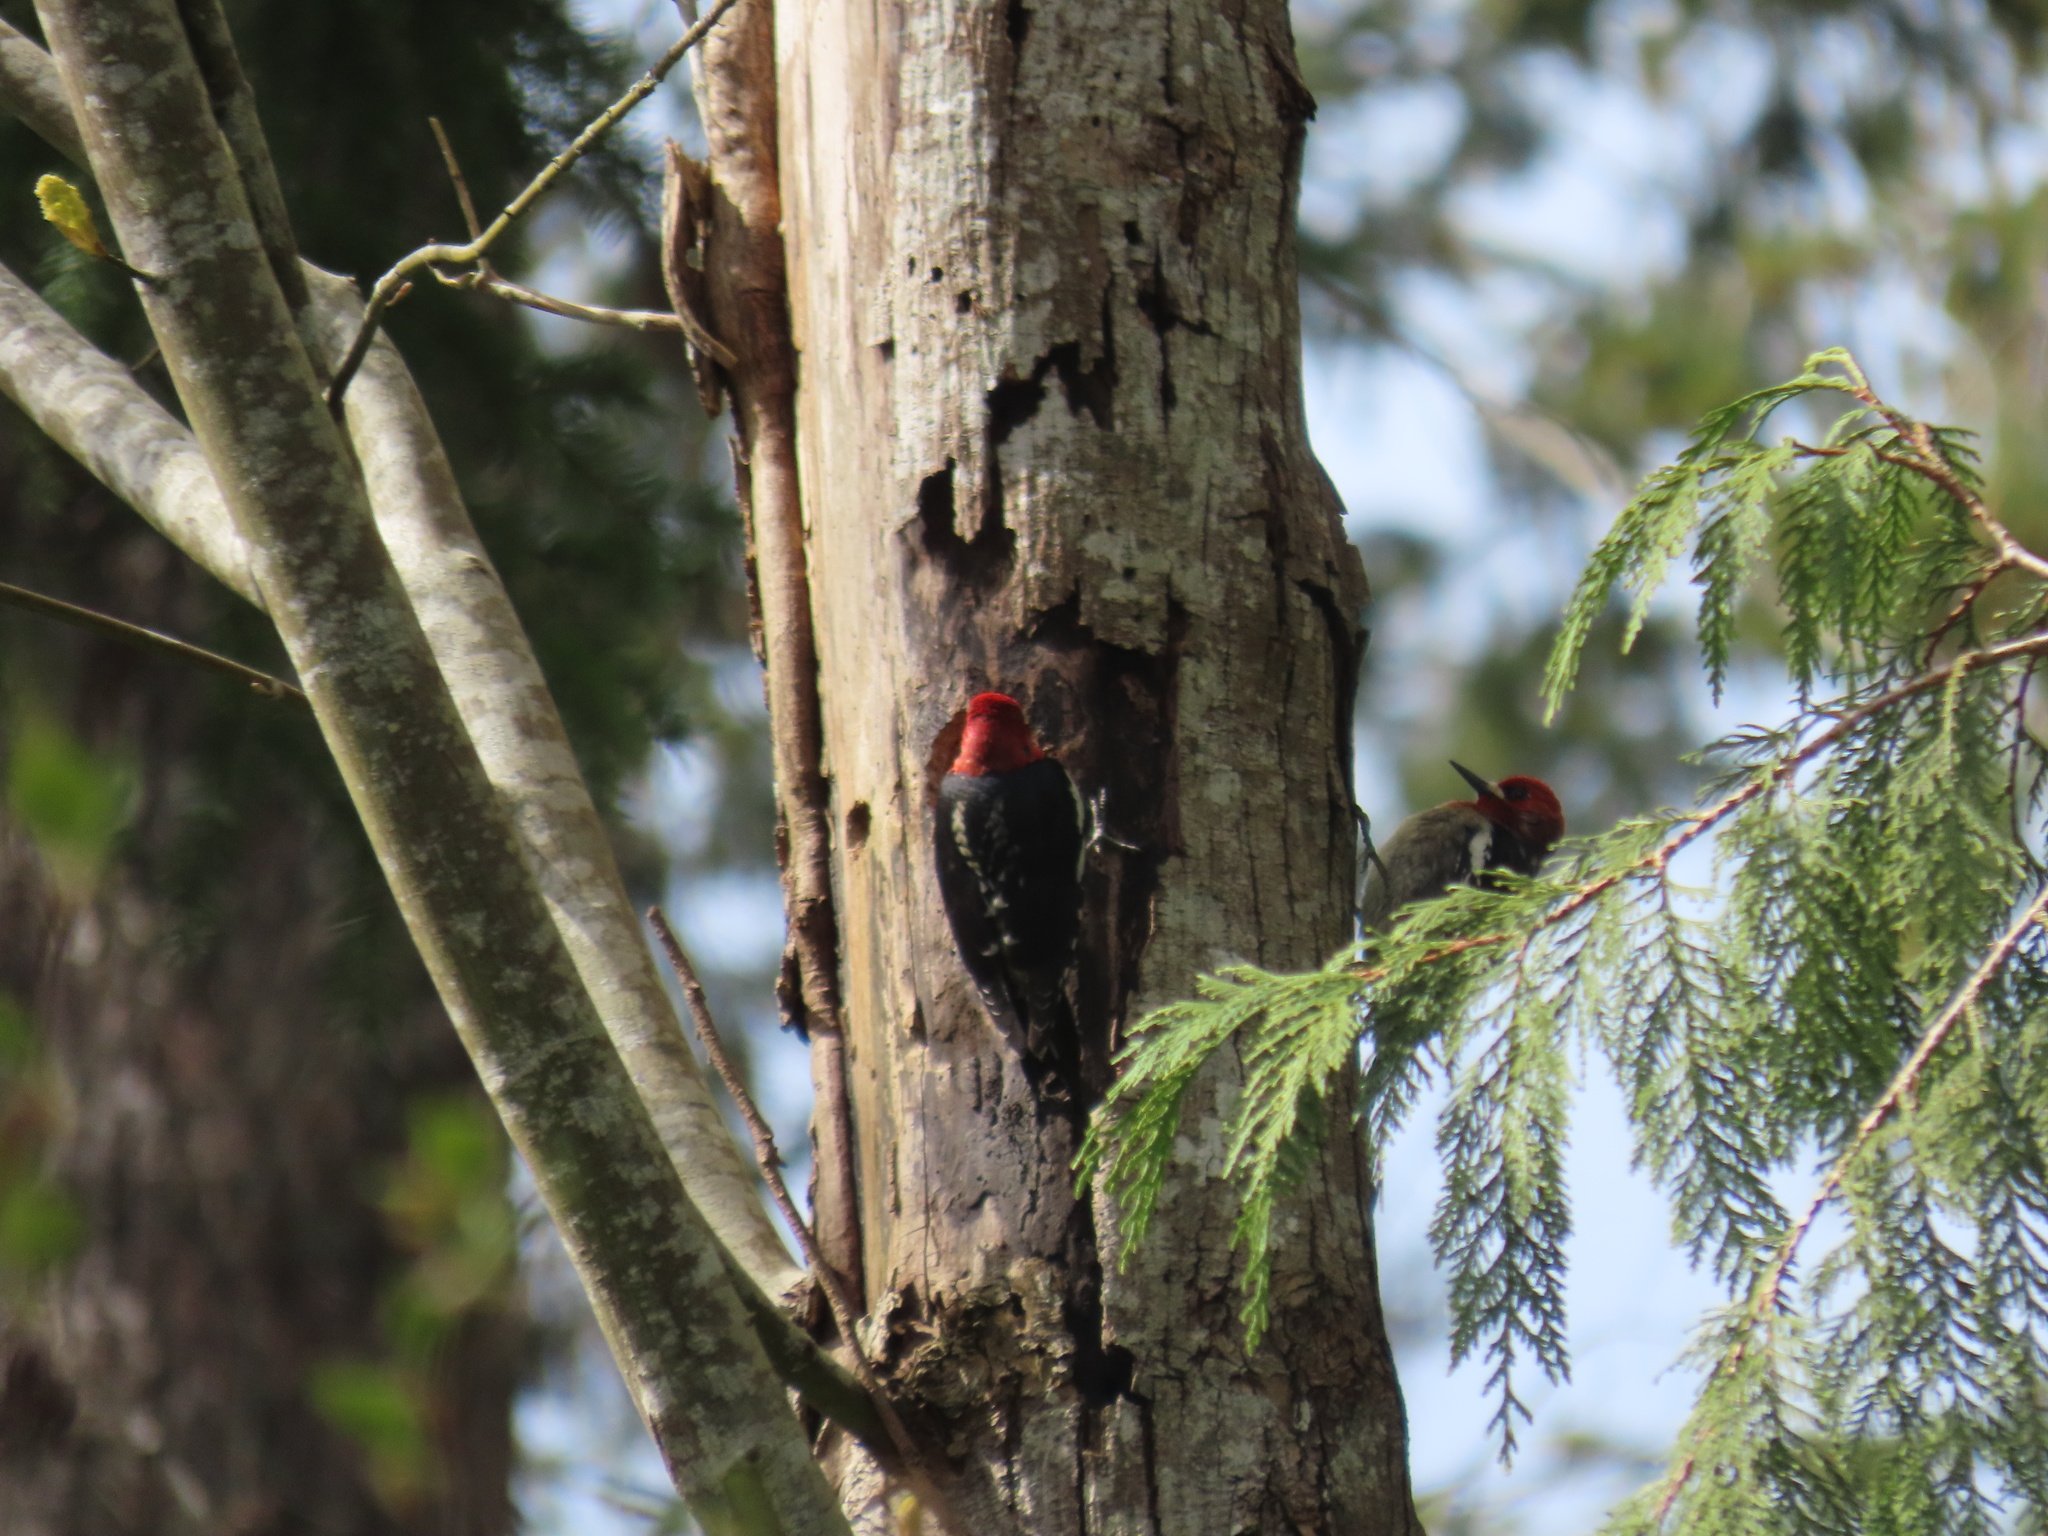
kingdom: Animalia
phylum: Chordata
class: Aves
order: Piciformes
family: Picidae
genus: Sphyrapicus
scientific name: Sphyrapicus ruber
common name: Red-breasted sapsucker
